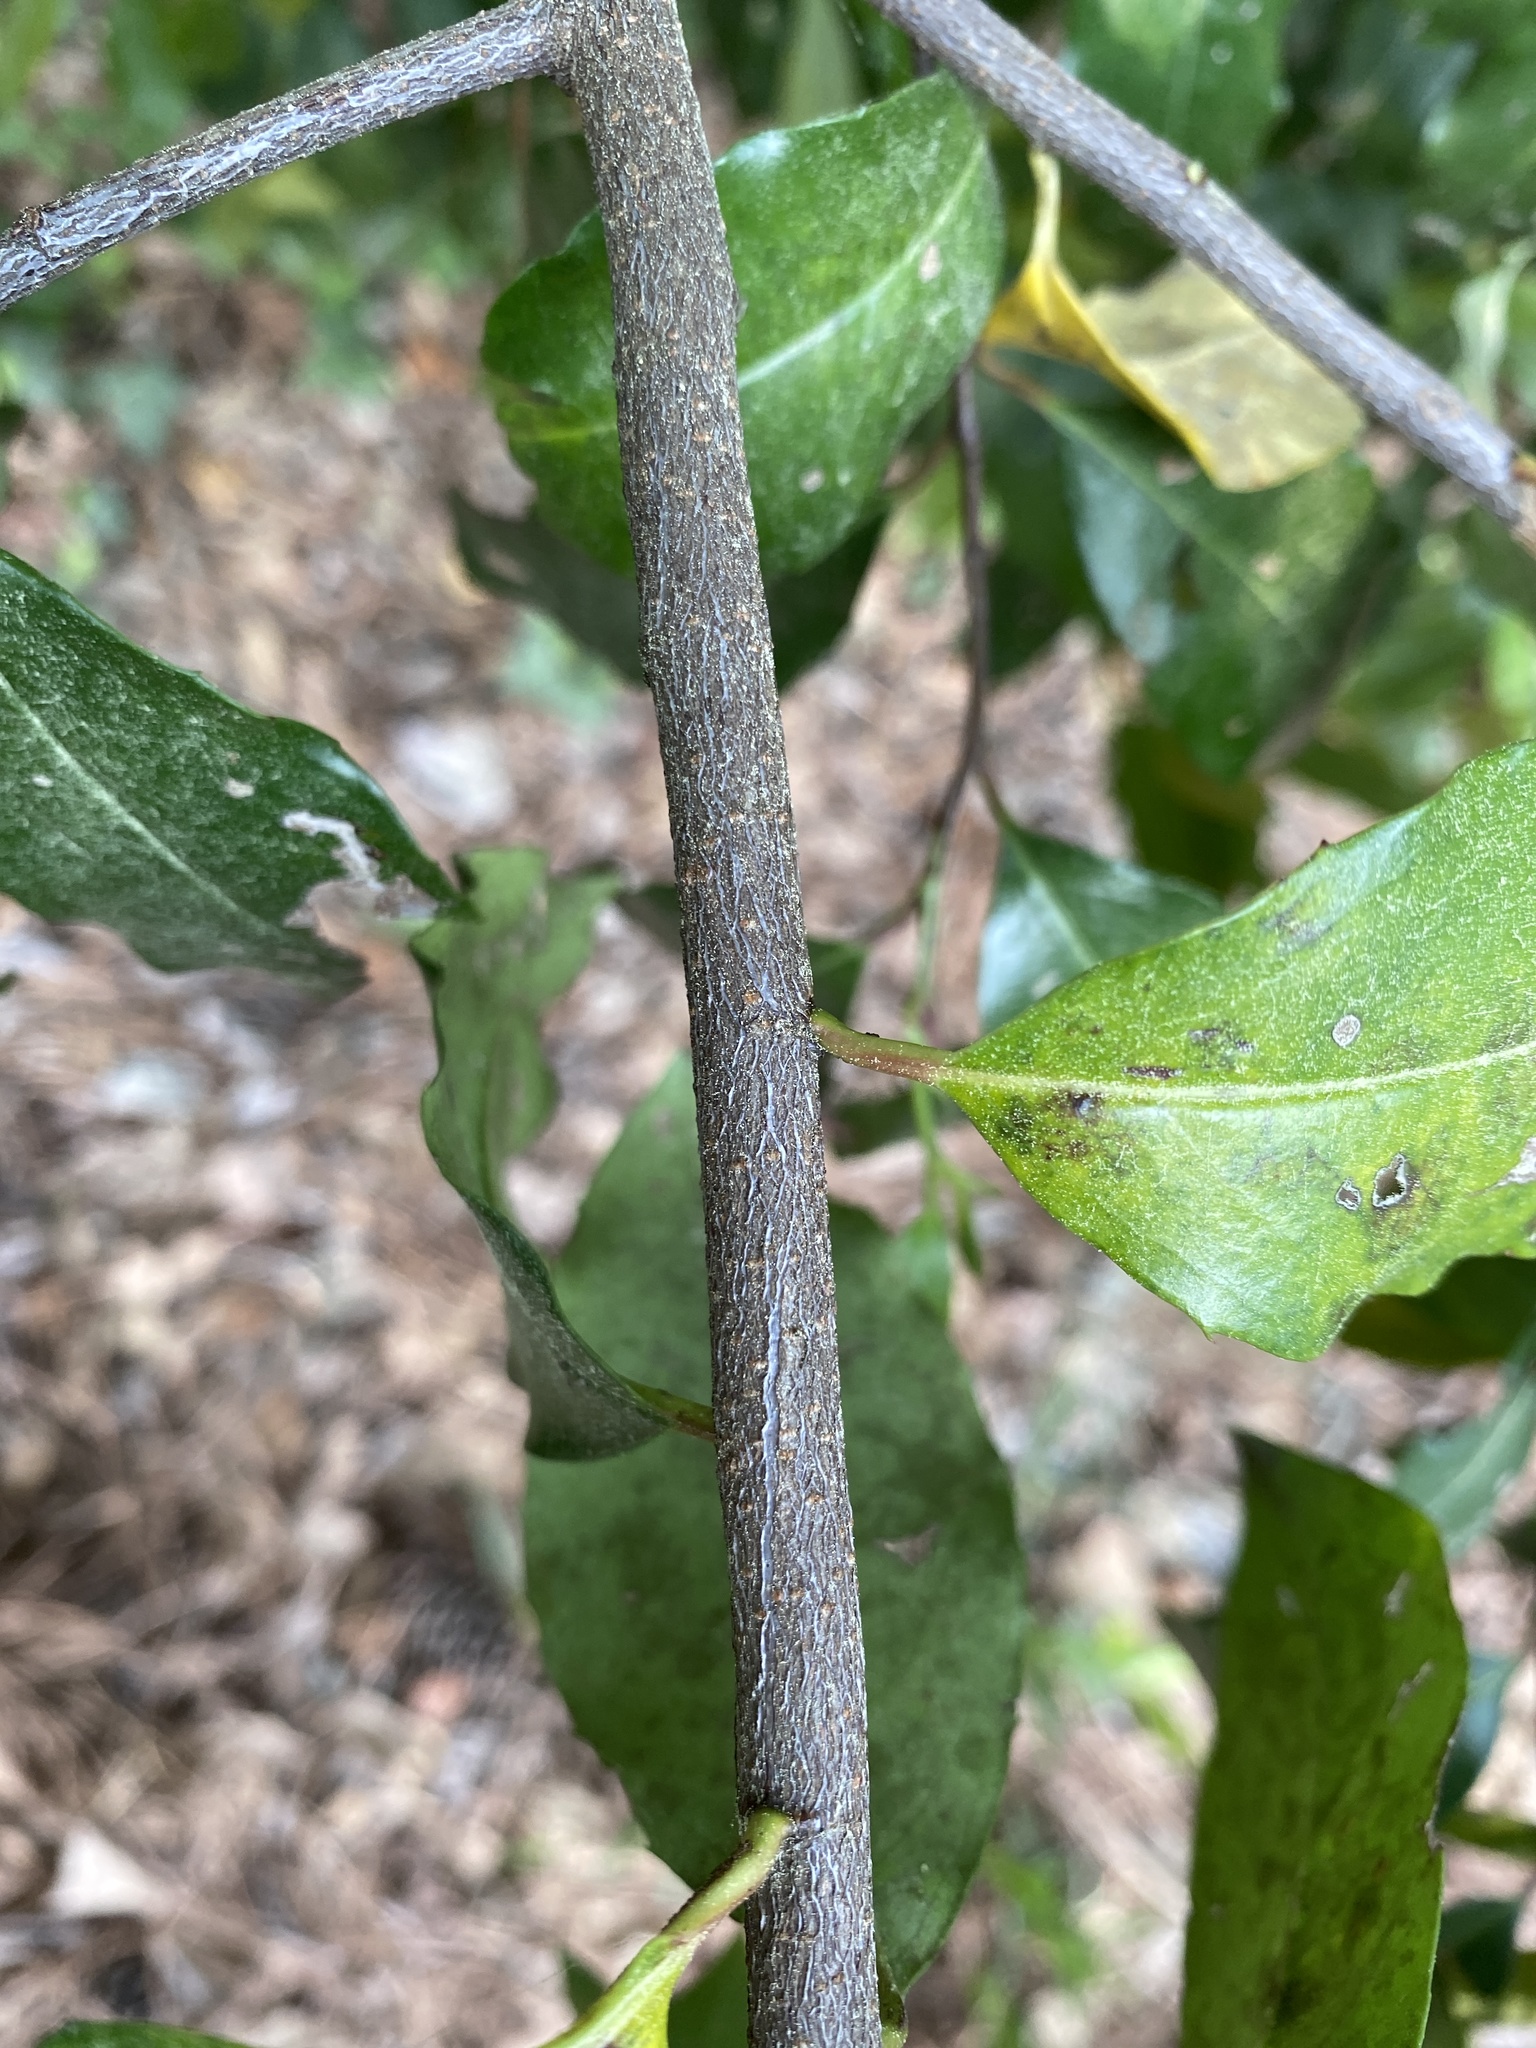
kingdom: Plantae
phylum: Tracheophyta
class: Magnoliopsida
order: Rosales
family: Rosaceae
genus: Prunus
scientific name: Prunus caroliniana
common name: Carolina laurel cherry
